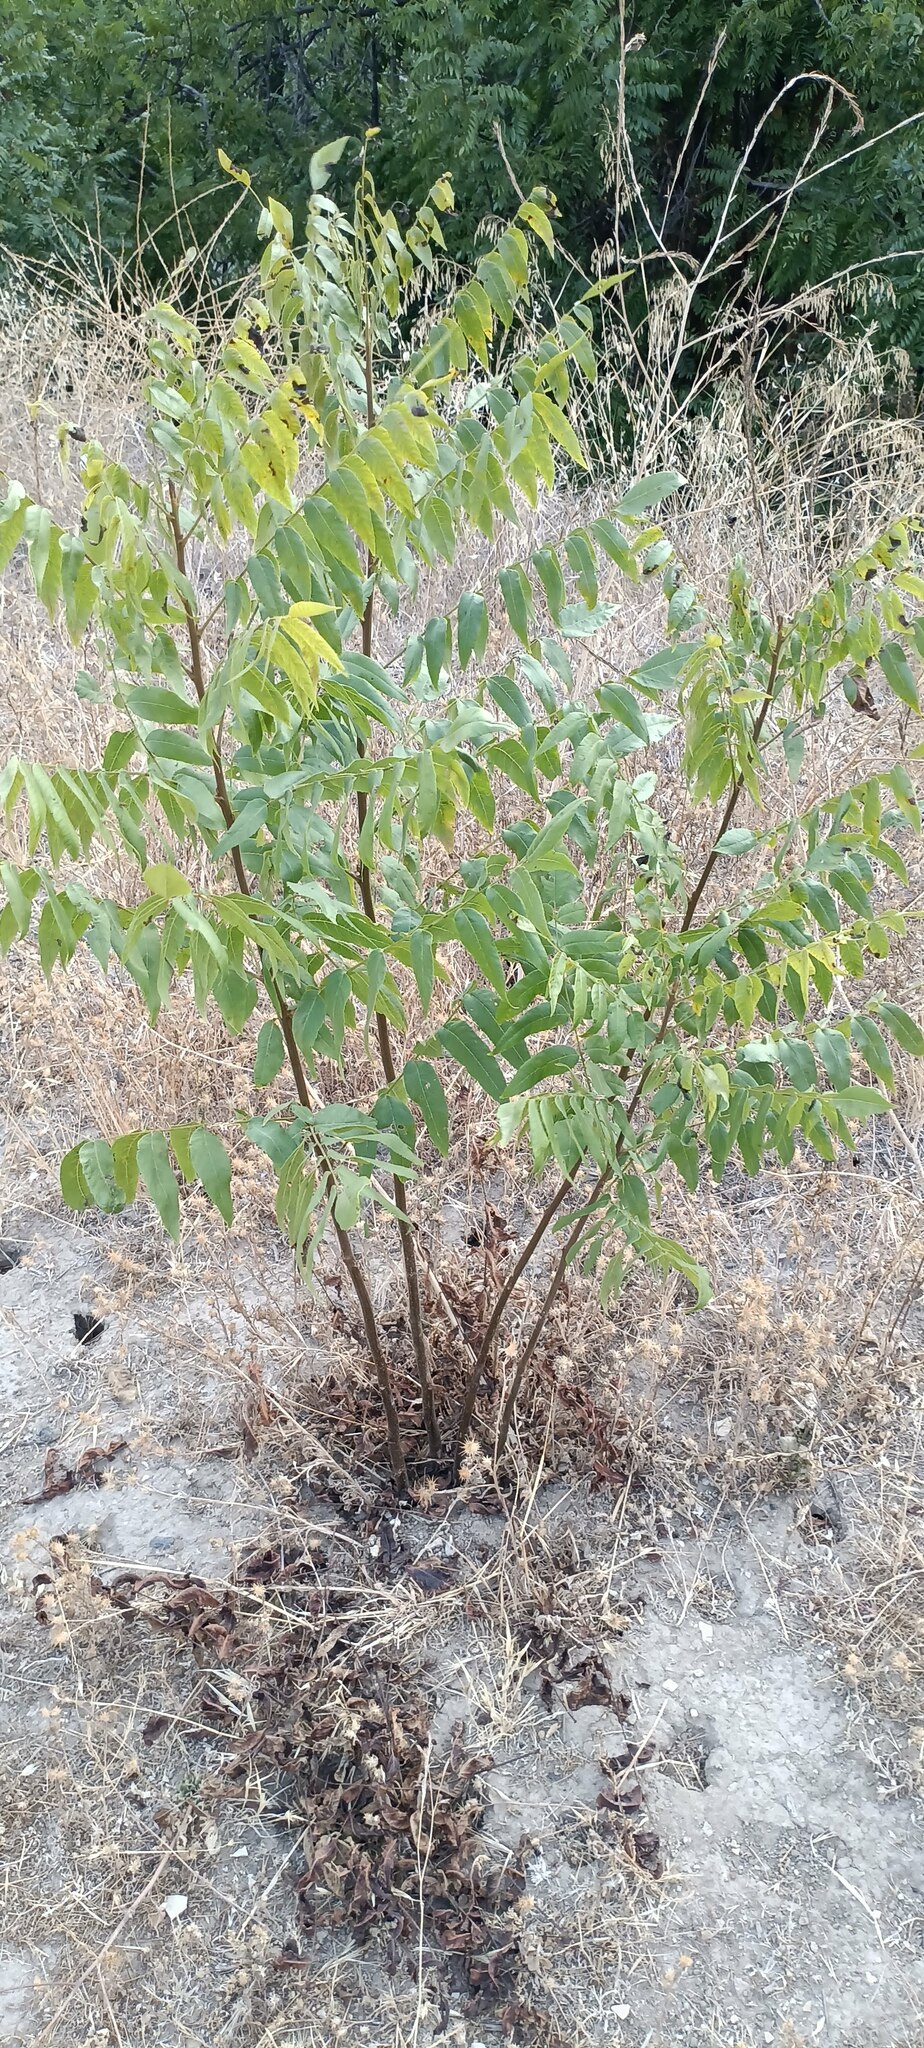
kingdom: Plantae
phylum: Tracheophyta
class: Magnoliopsida
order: Fagales
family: Juglandaceae
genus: Juglans
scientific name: Juglans californica
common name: Southern california black walnut
